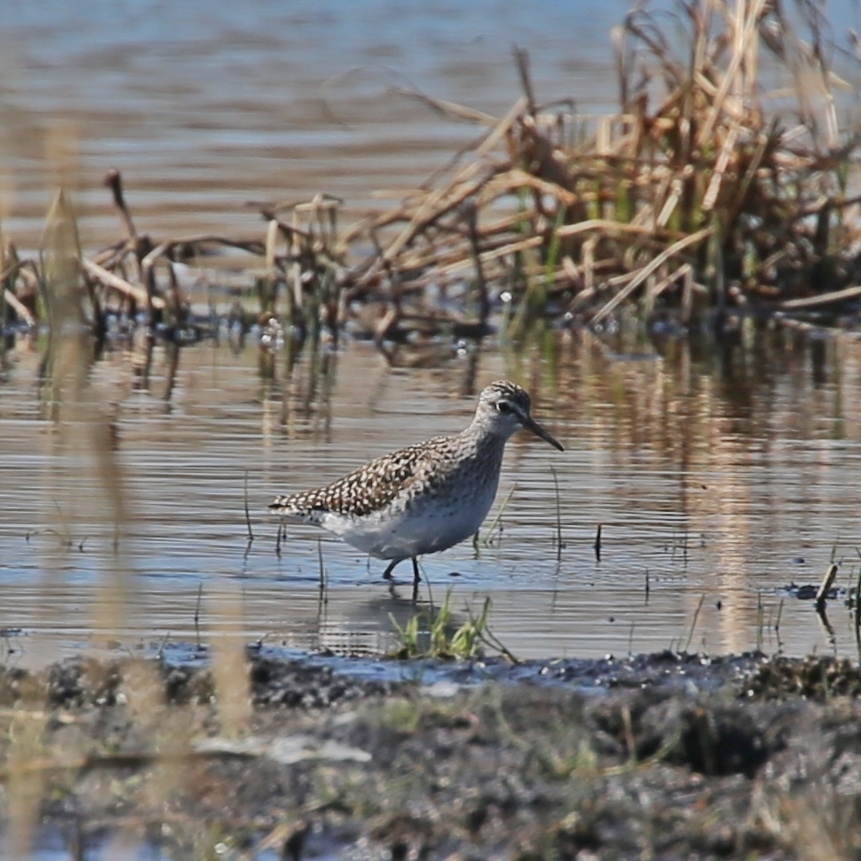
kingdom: Animalia
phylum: Chordata
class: Aves
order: Charadriiformes
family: Scolopacidae
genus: Tringa
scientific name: Tringa glareola
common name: Wood sandpiper
